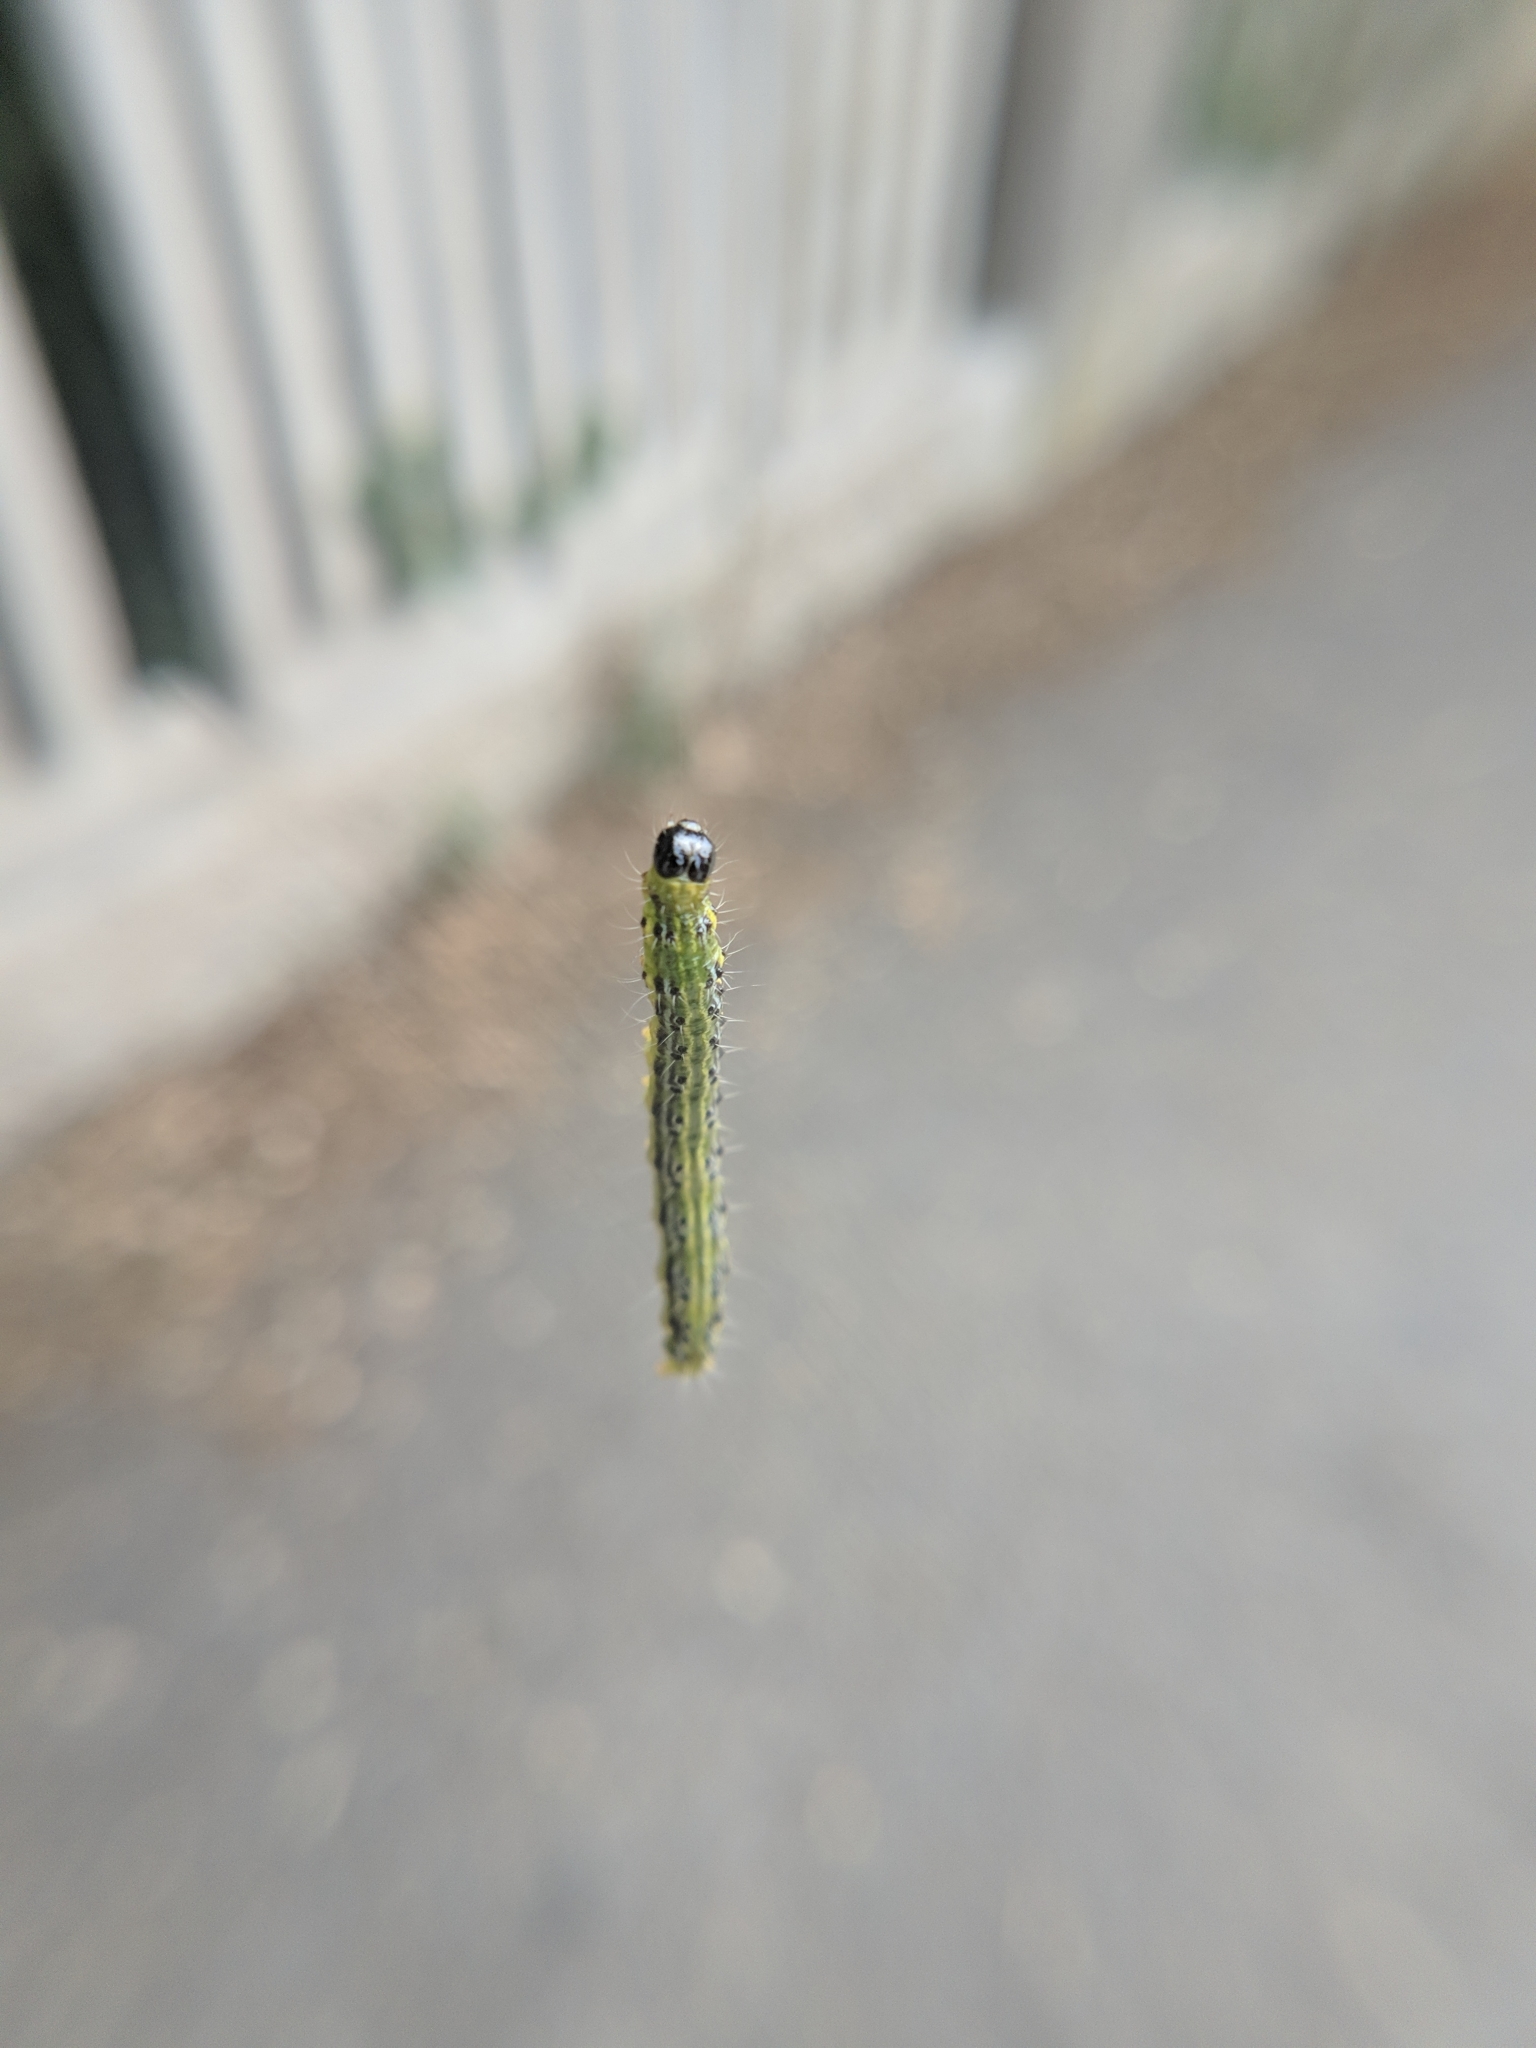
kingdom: Animalia
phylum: Arthropoda
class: Insecta
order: Lepidoptera
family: Crambidae
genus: Cydalima
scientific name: Cydalima perspectalis
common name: Box tree moth
